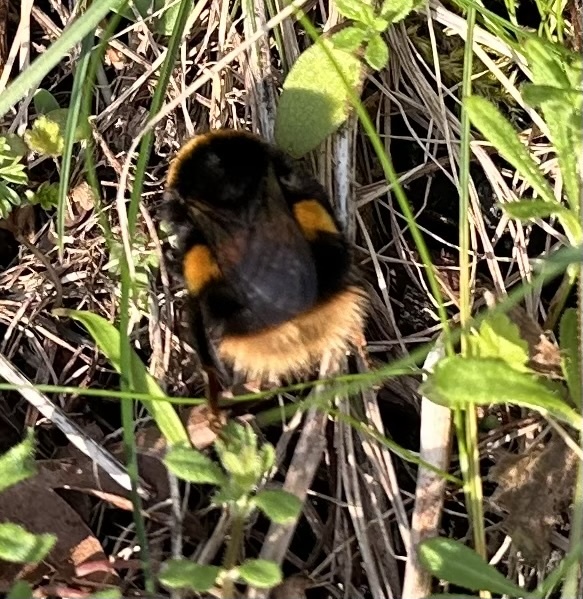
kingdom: Animalia
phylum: Arthropoda
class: Insecta
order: Hymenoptera
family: Apidae
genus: Bombus
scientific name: Bombus terrestris
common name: Buff-tailed bumblebee
